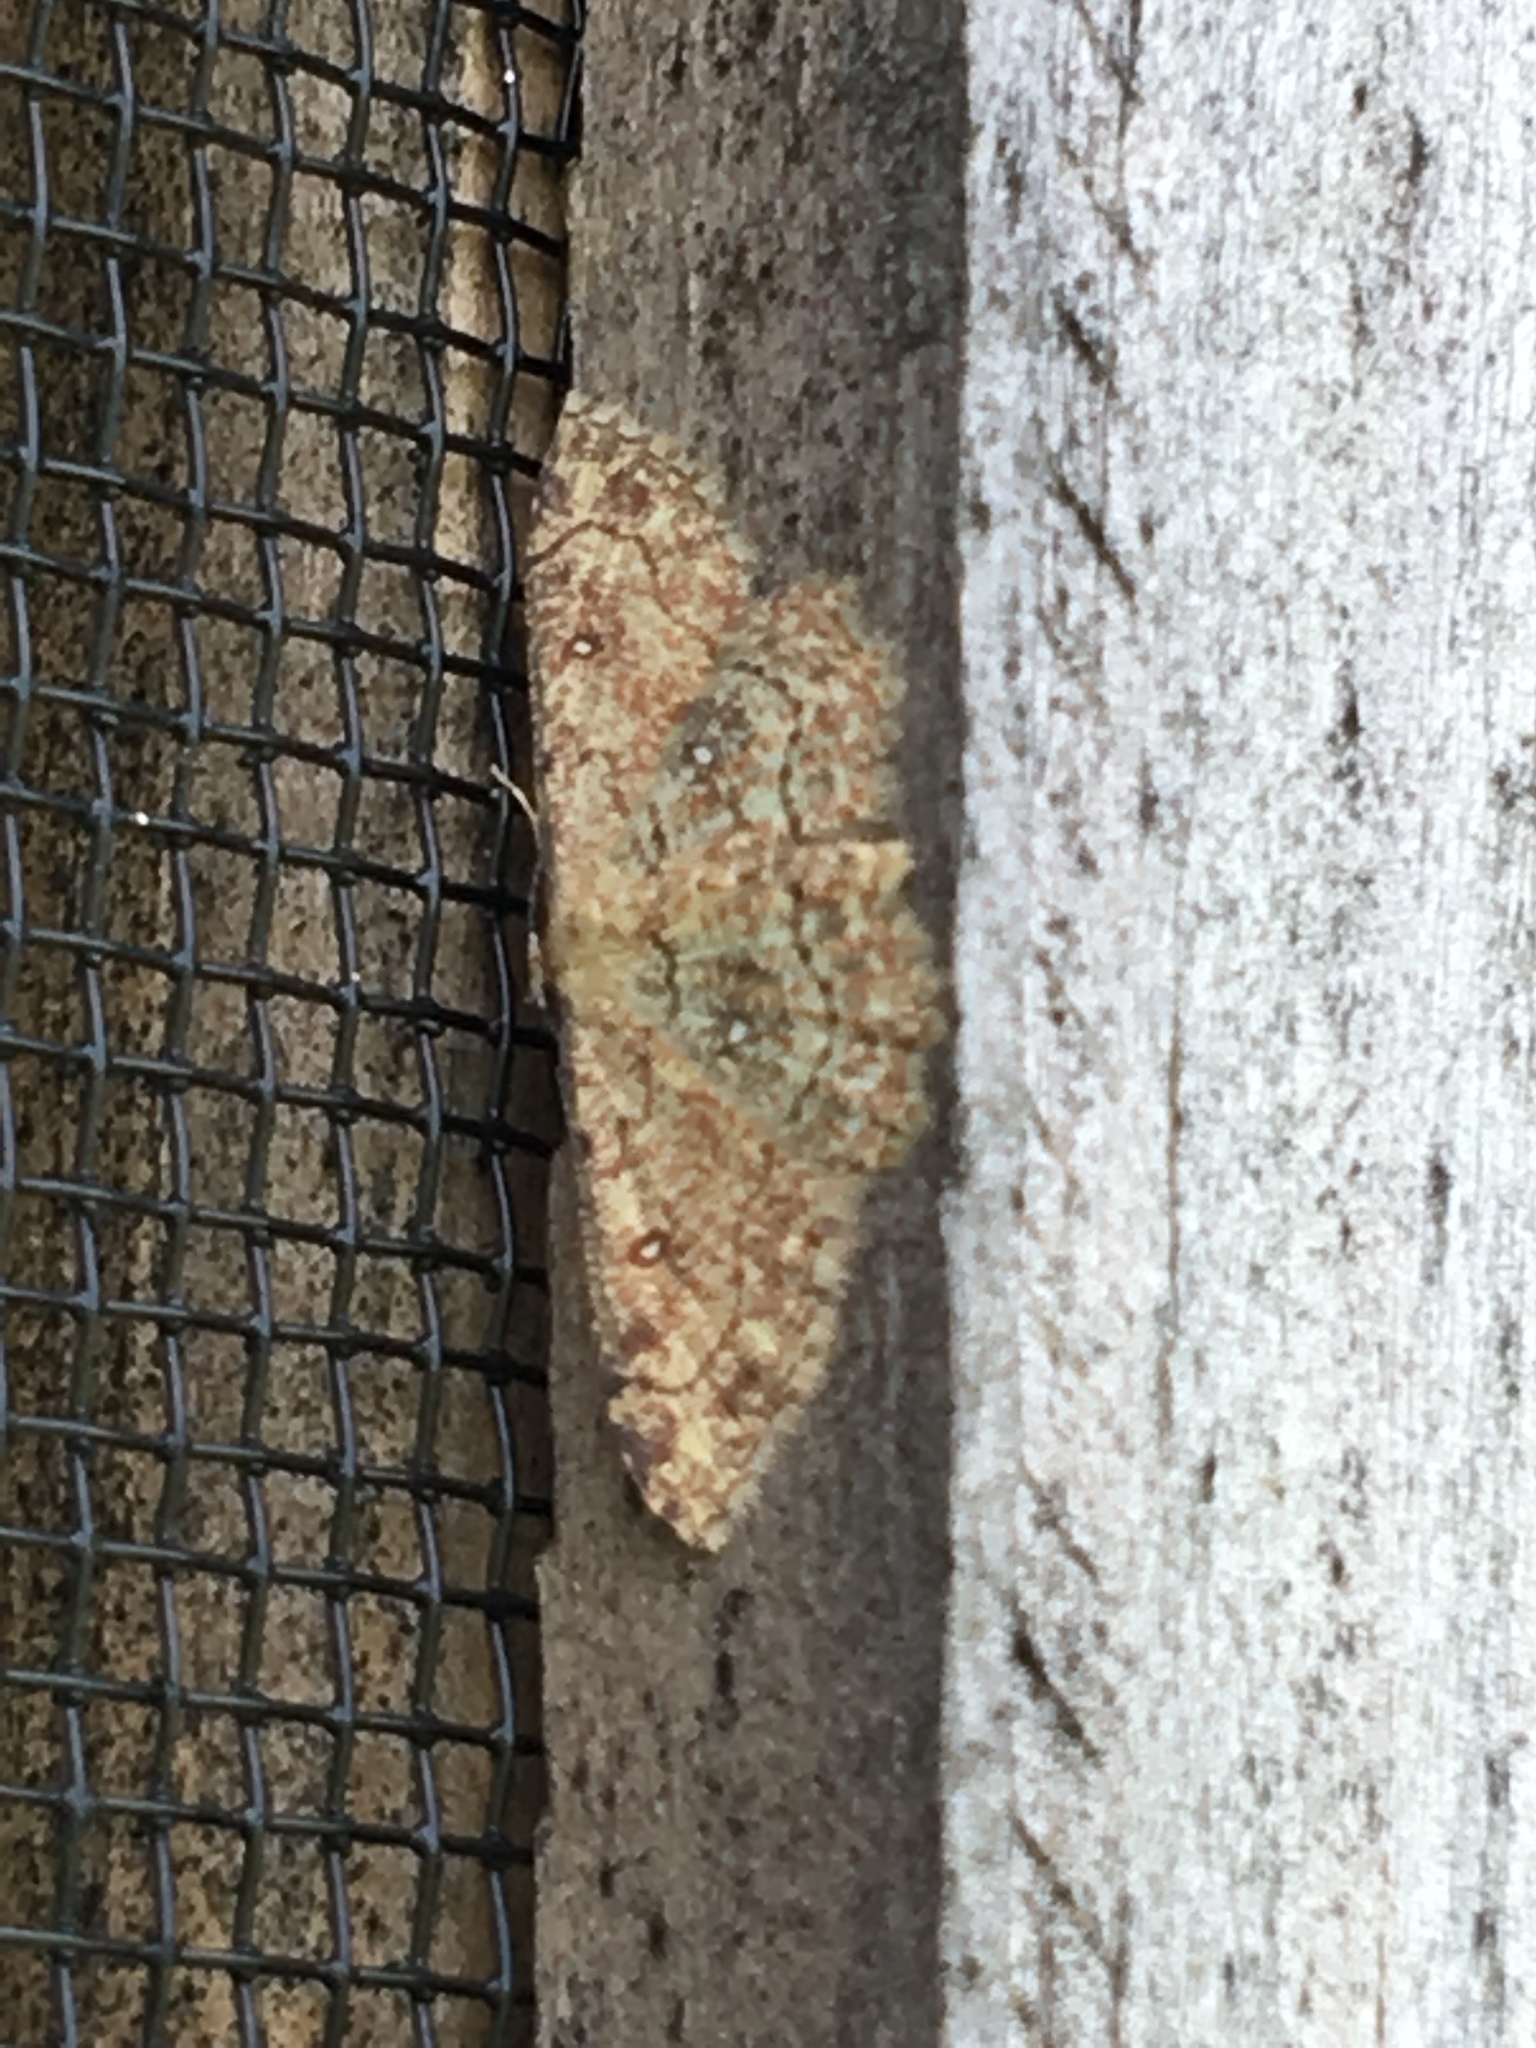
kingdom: Animalia
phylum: Arthropoda
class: Insecta
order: Lepidoptera
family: Geometridae
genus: Cyclophora
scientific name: Cyclophora nanaria
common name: Cankerworm
